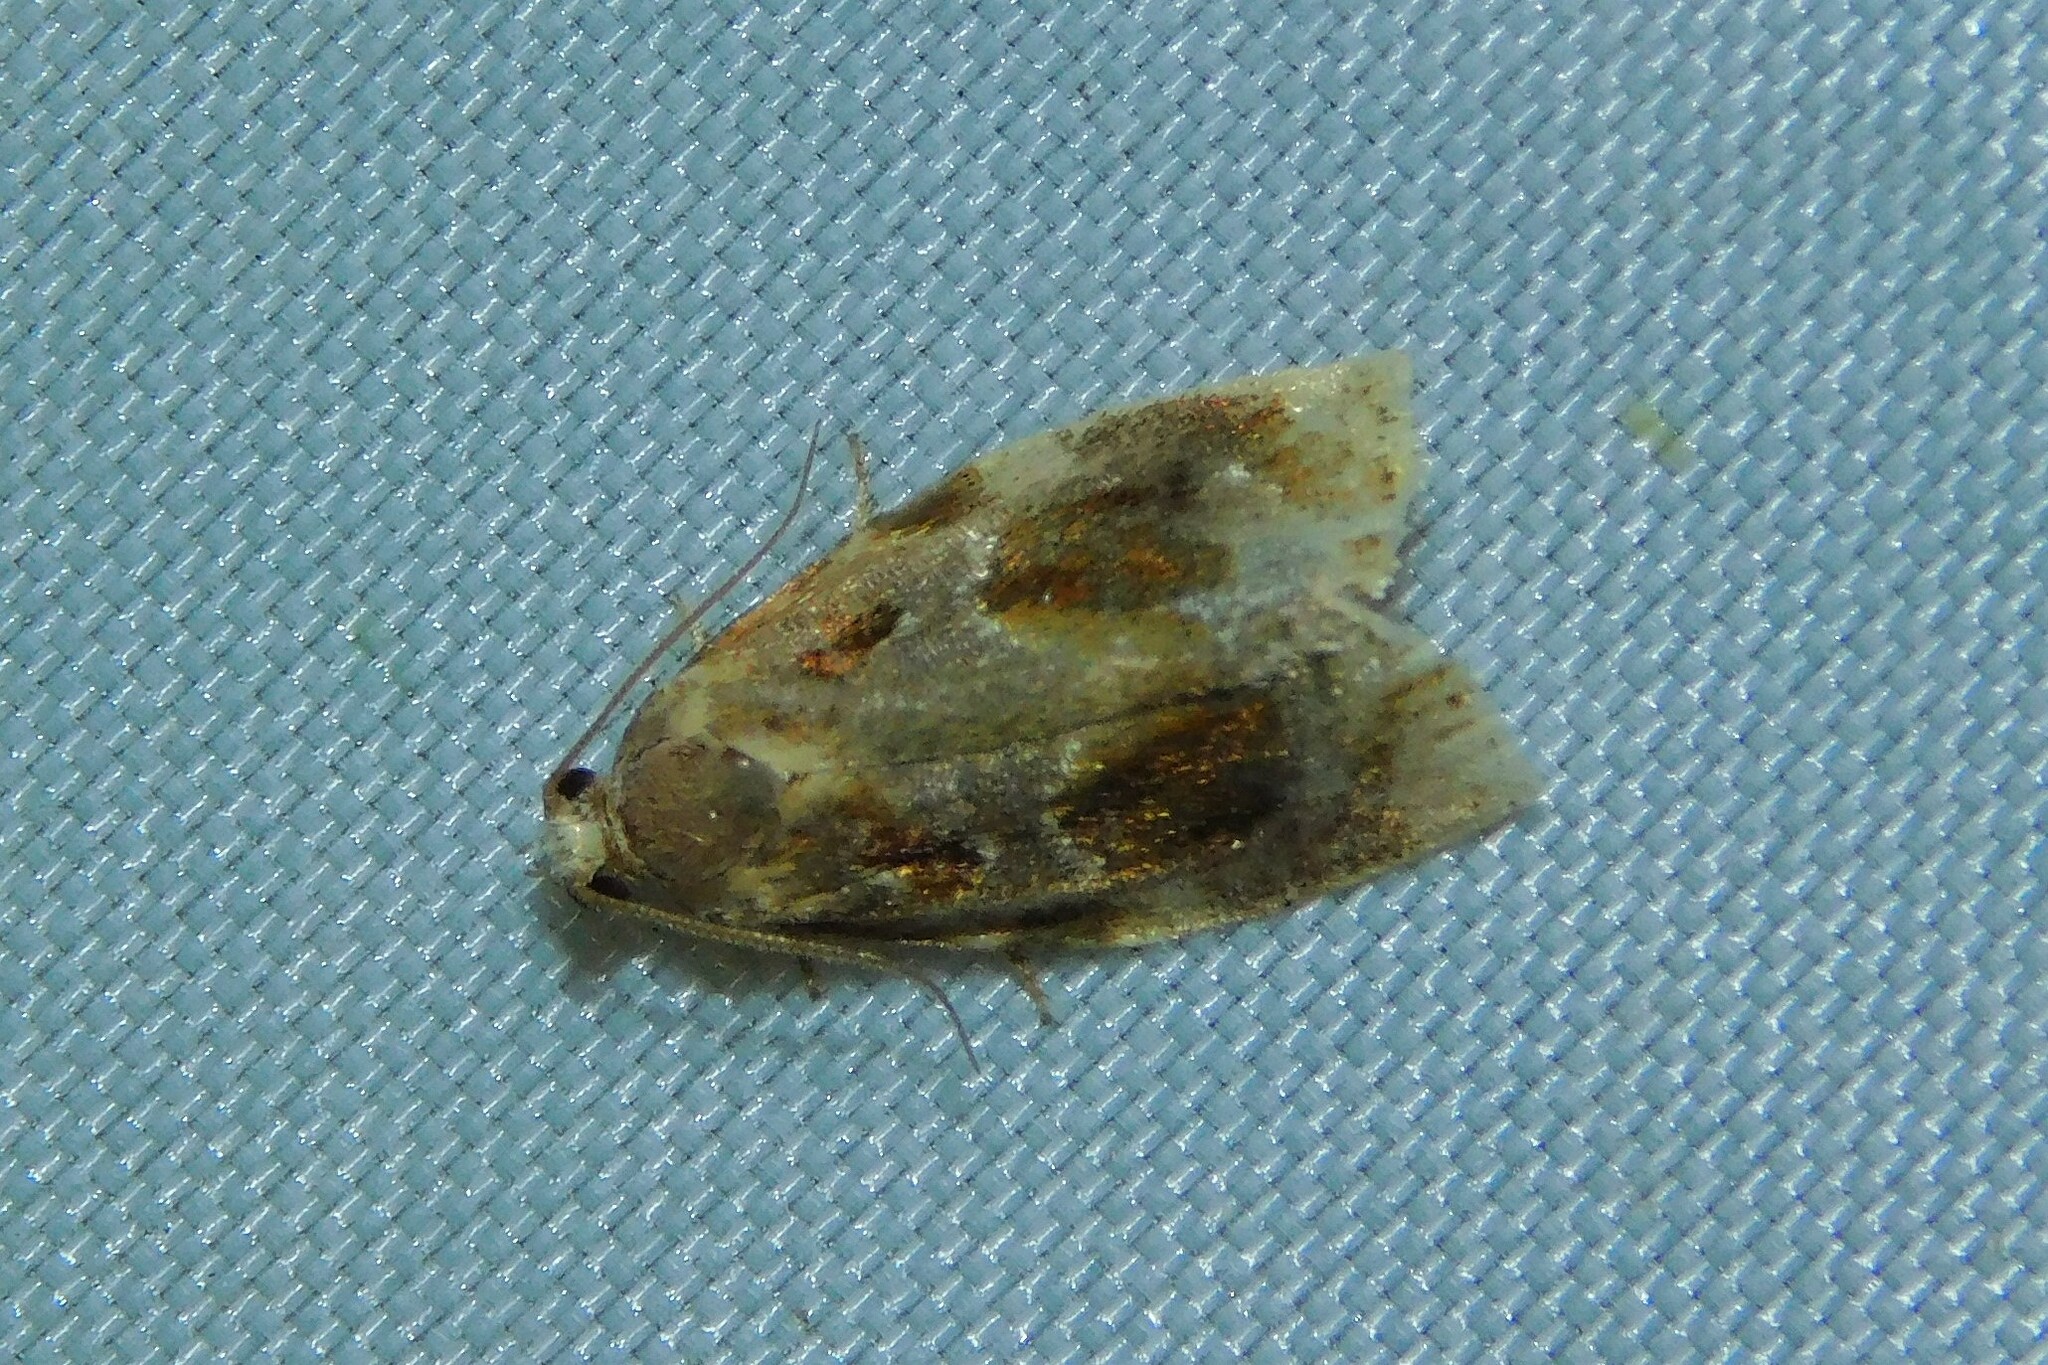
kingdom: Animalia
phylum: Arthropoda
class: Insecta
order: Lepidoptera
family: Tortricidae
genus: Archips
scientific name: Archips xylosteana
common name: Variegated golden tortrix
